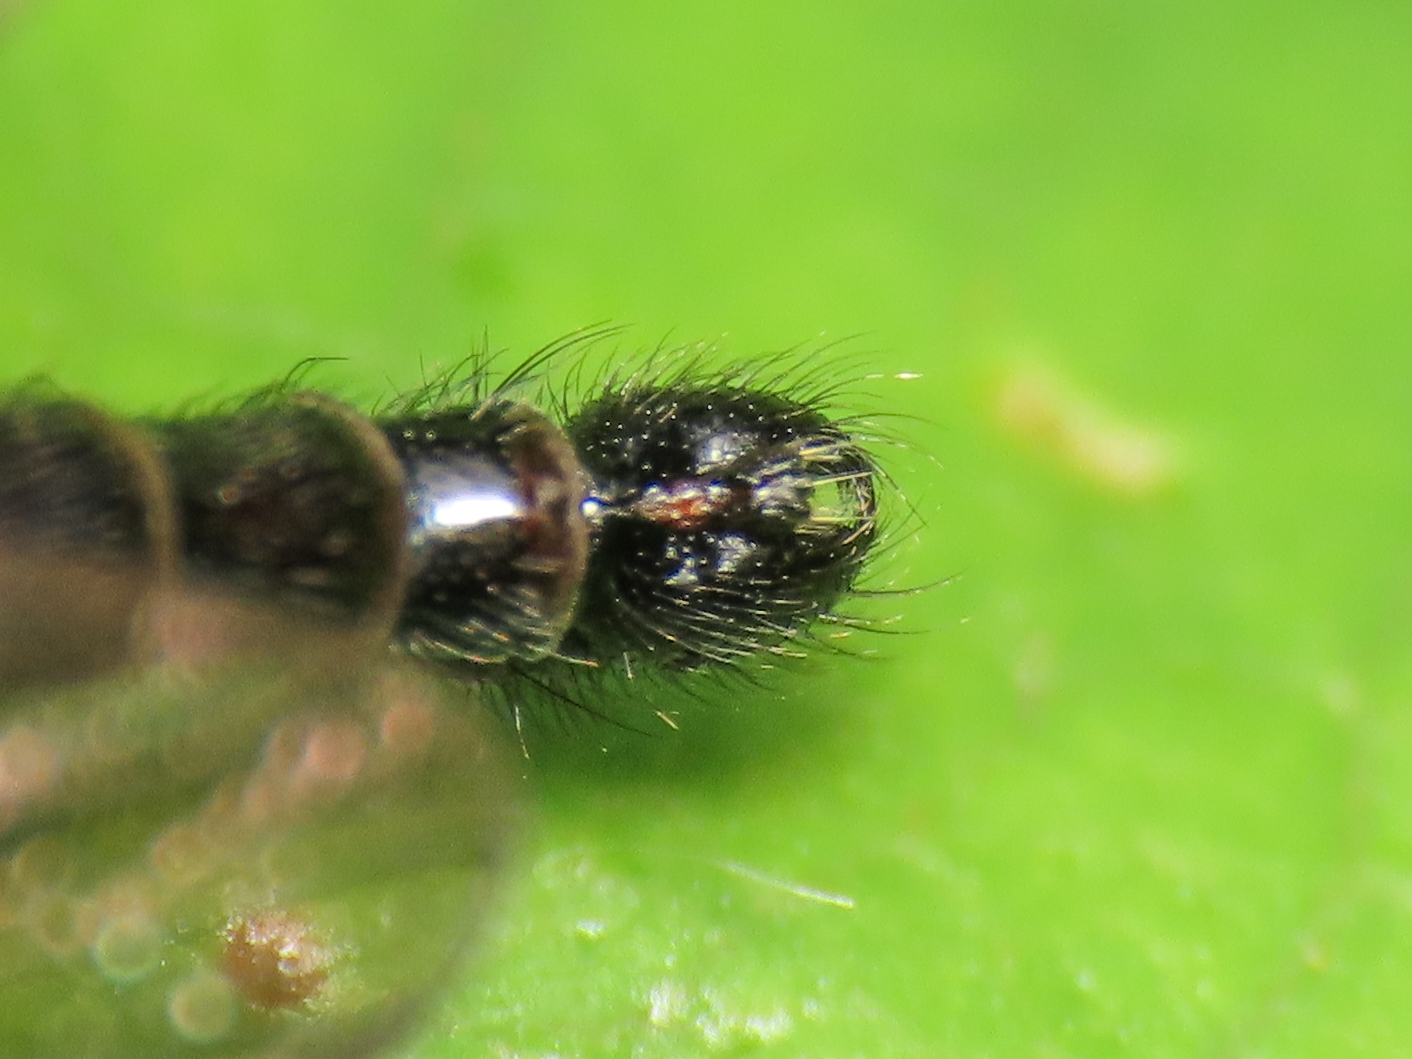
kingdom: Animalia
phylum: Arthropoda
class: Insecta
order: Diptera
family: Asilidae
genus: Neoitamus
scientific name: Neoitamus castellanii
